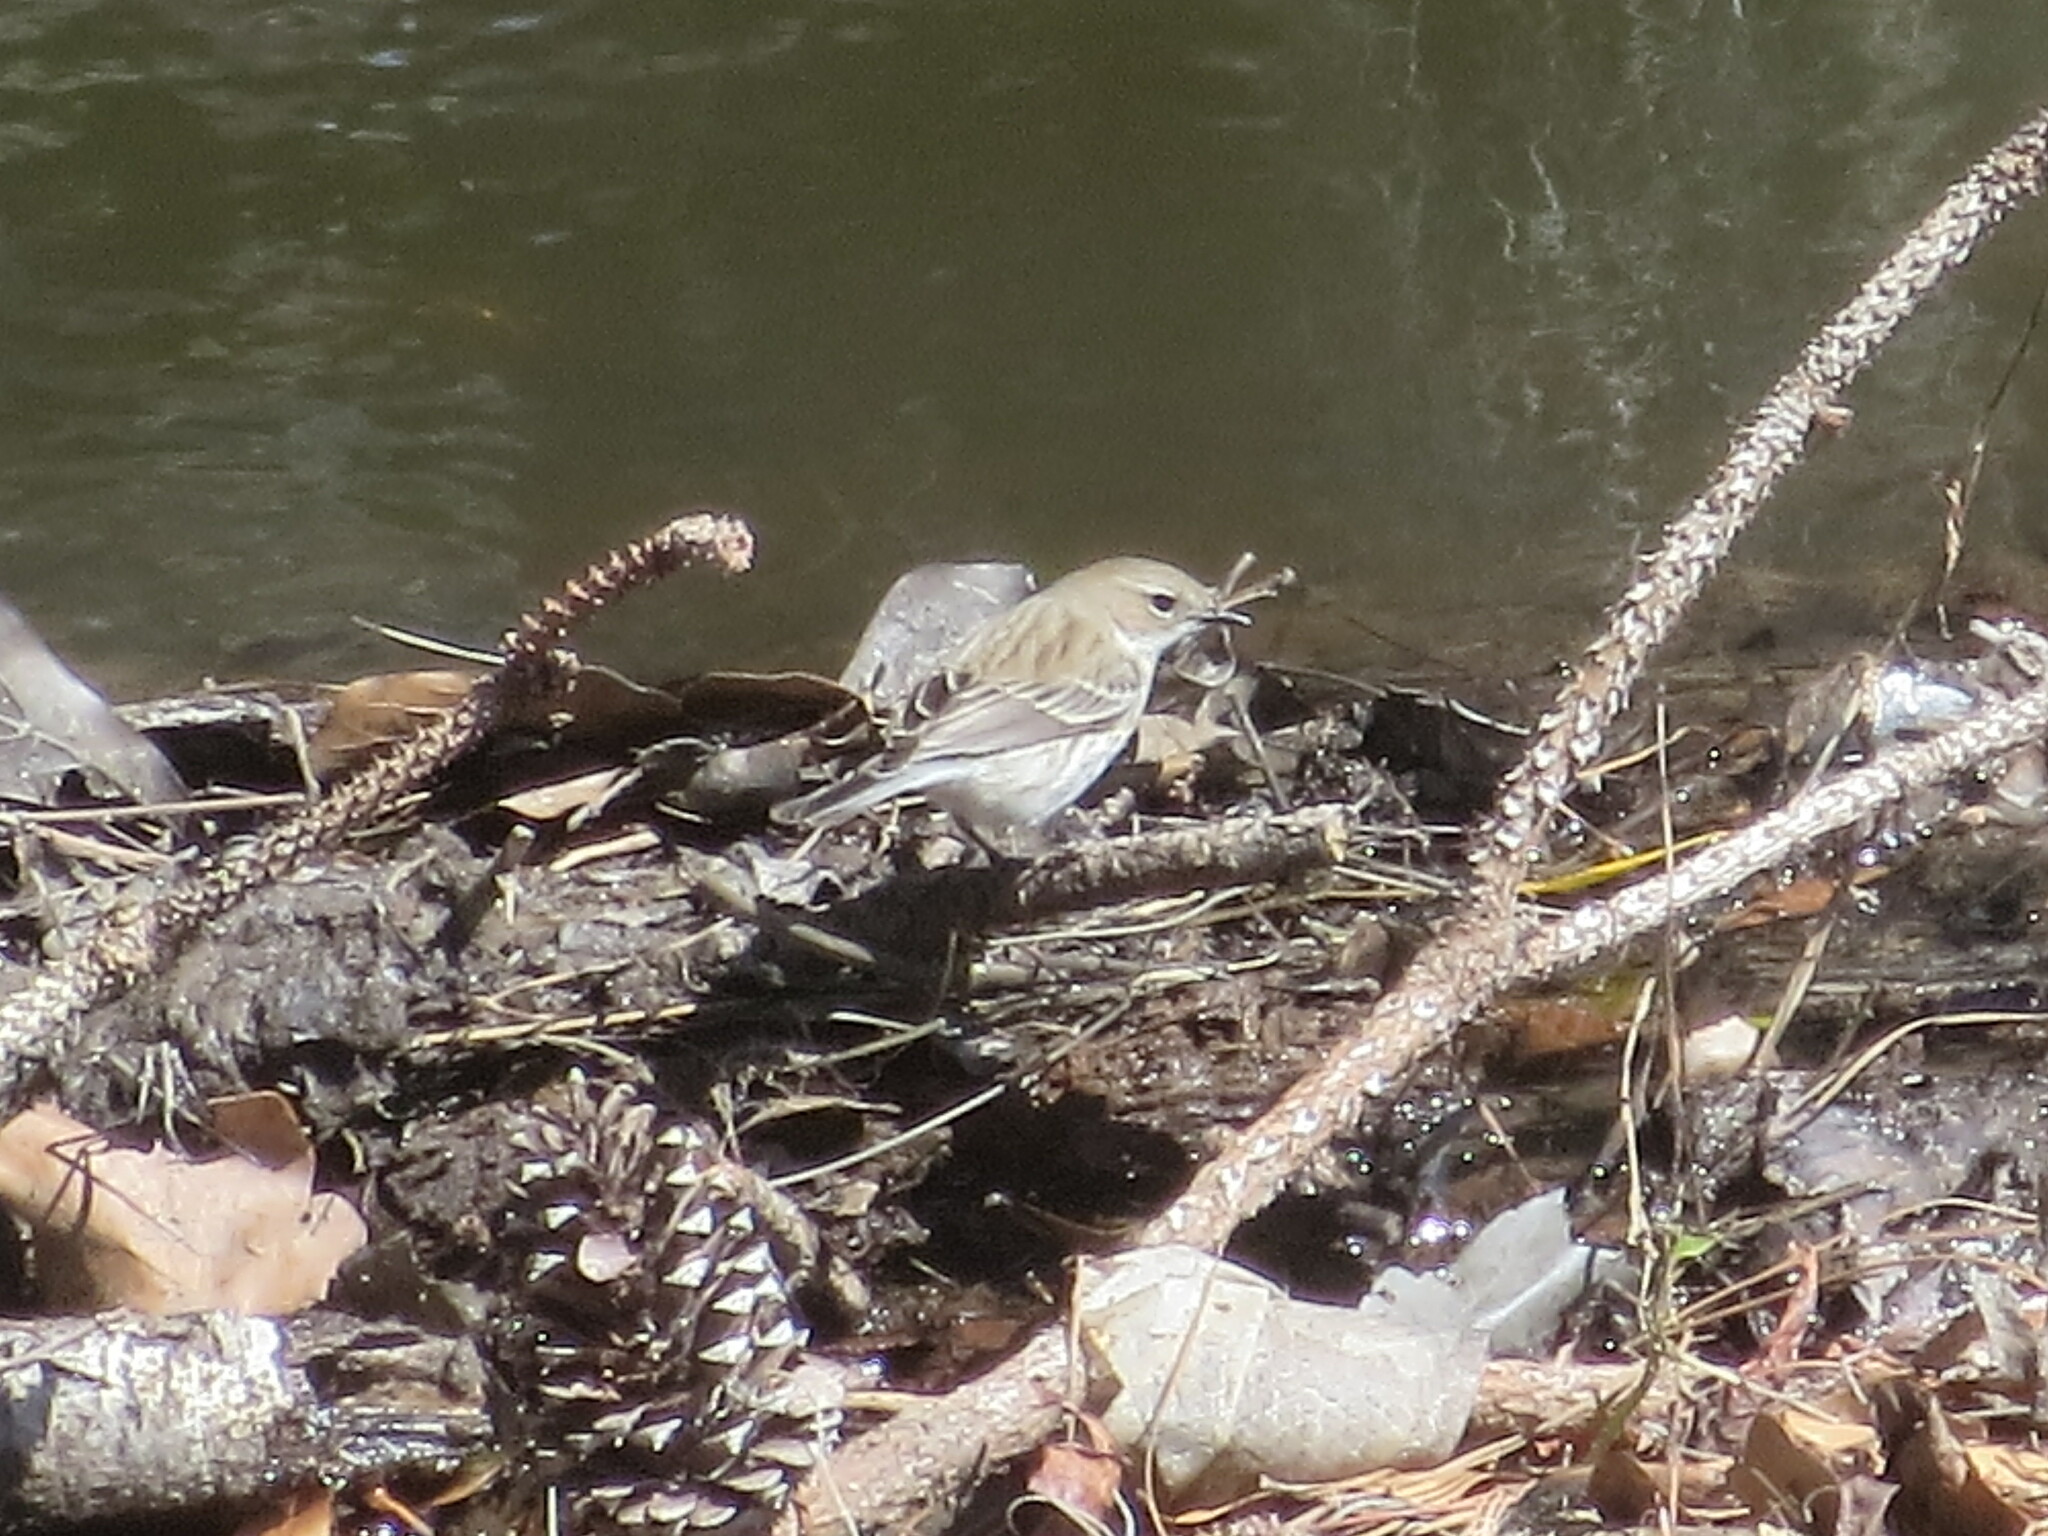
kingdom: Animalia
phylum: Chordata
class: Aves
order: Passeriformes
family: Parulidae
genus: Setophaga
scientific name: Setophaga coronata
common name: Myrtle warbler
